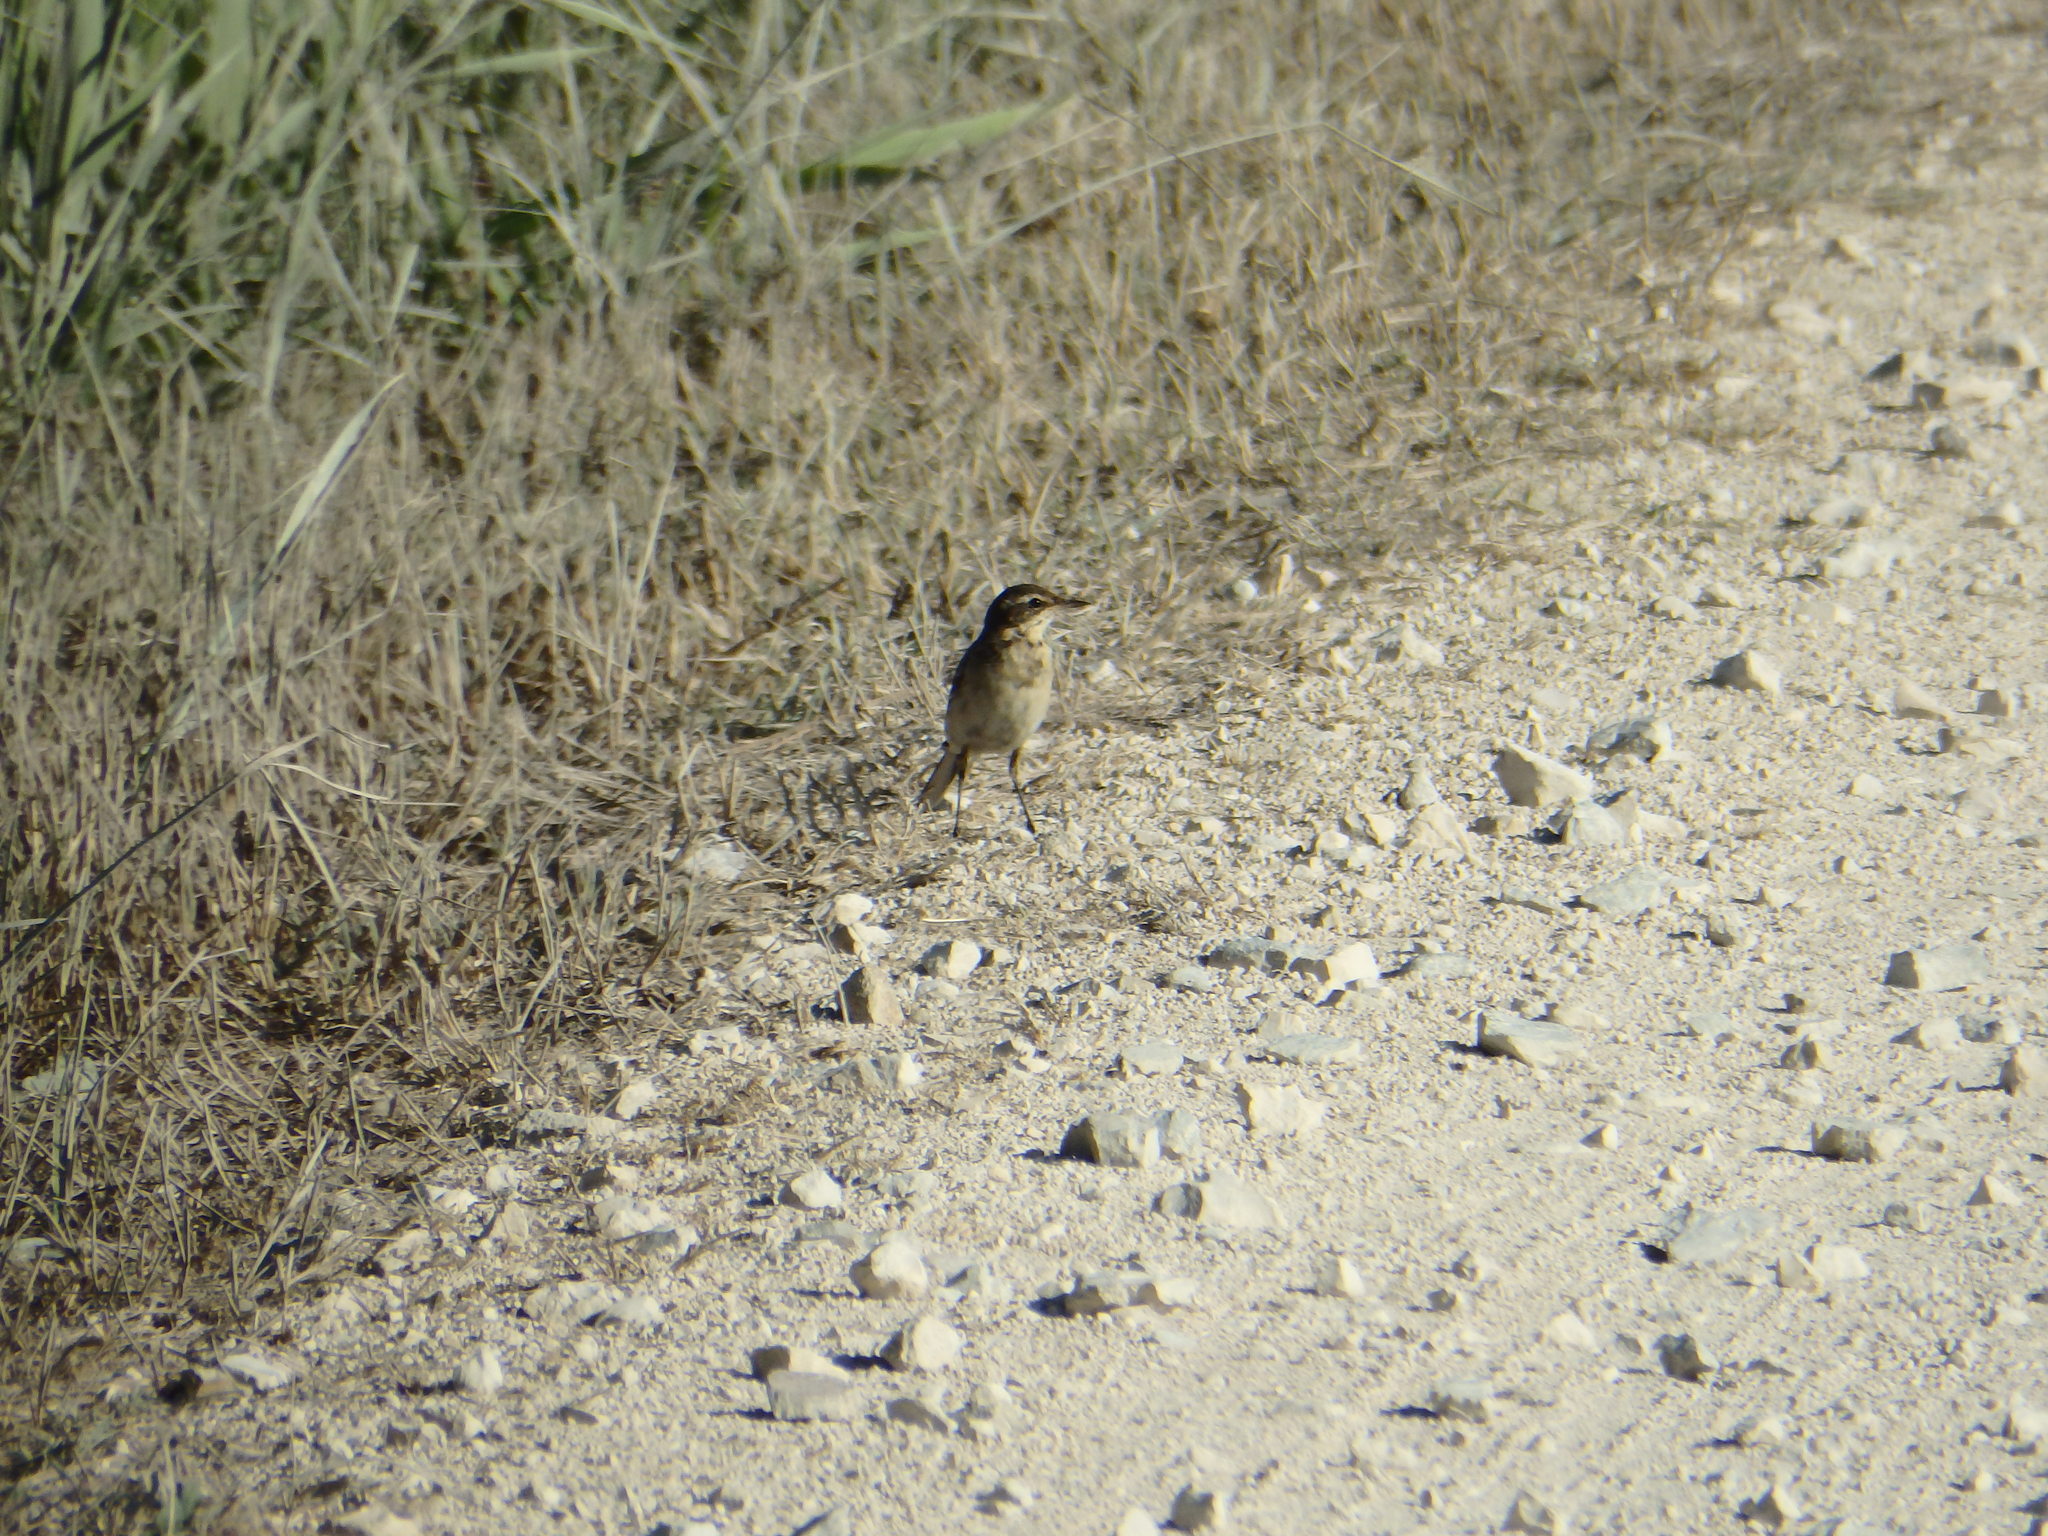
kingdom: Animalia
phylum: Chordata
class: Aves
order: Passeriformes
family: Motacillidae
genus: Motacilla
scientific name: Motacilla flava
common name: Western yellow wagtail
